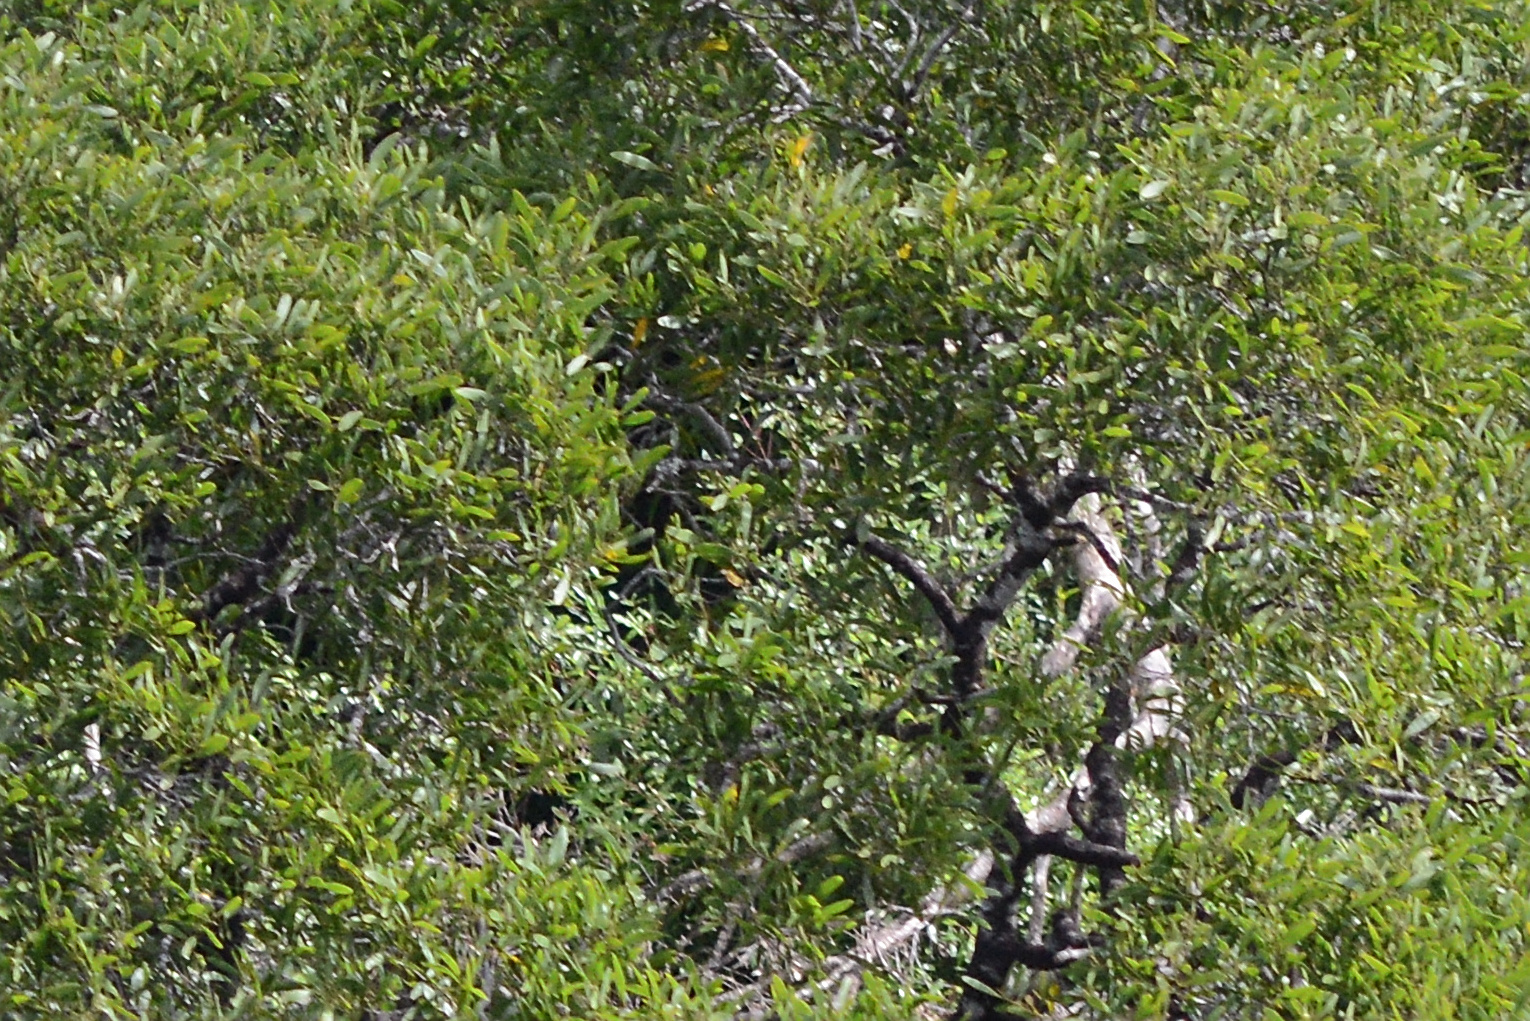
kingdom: Plantae
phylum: Tracheophyta
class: Magnoliopsida
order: Fabales
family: Fabaceae
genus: Acacia
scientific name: Acacia melanoxylon
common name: Blackwood
